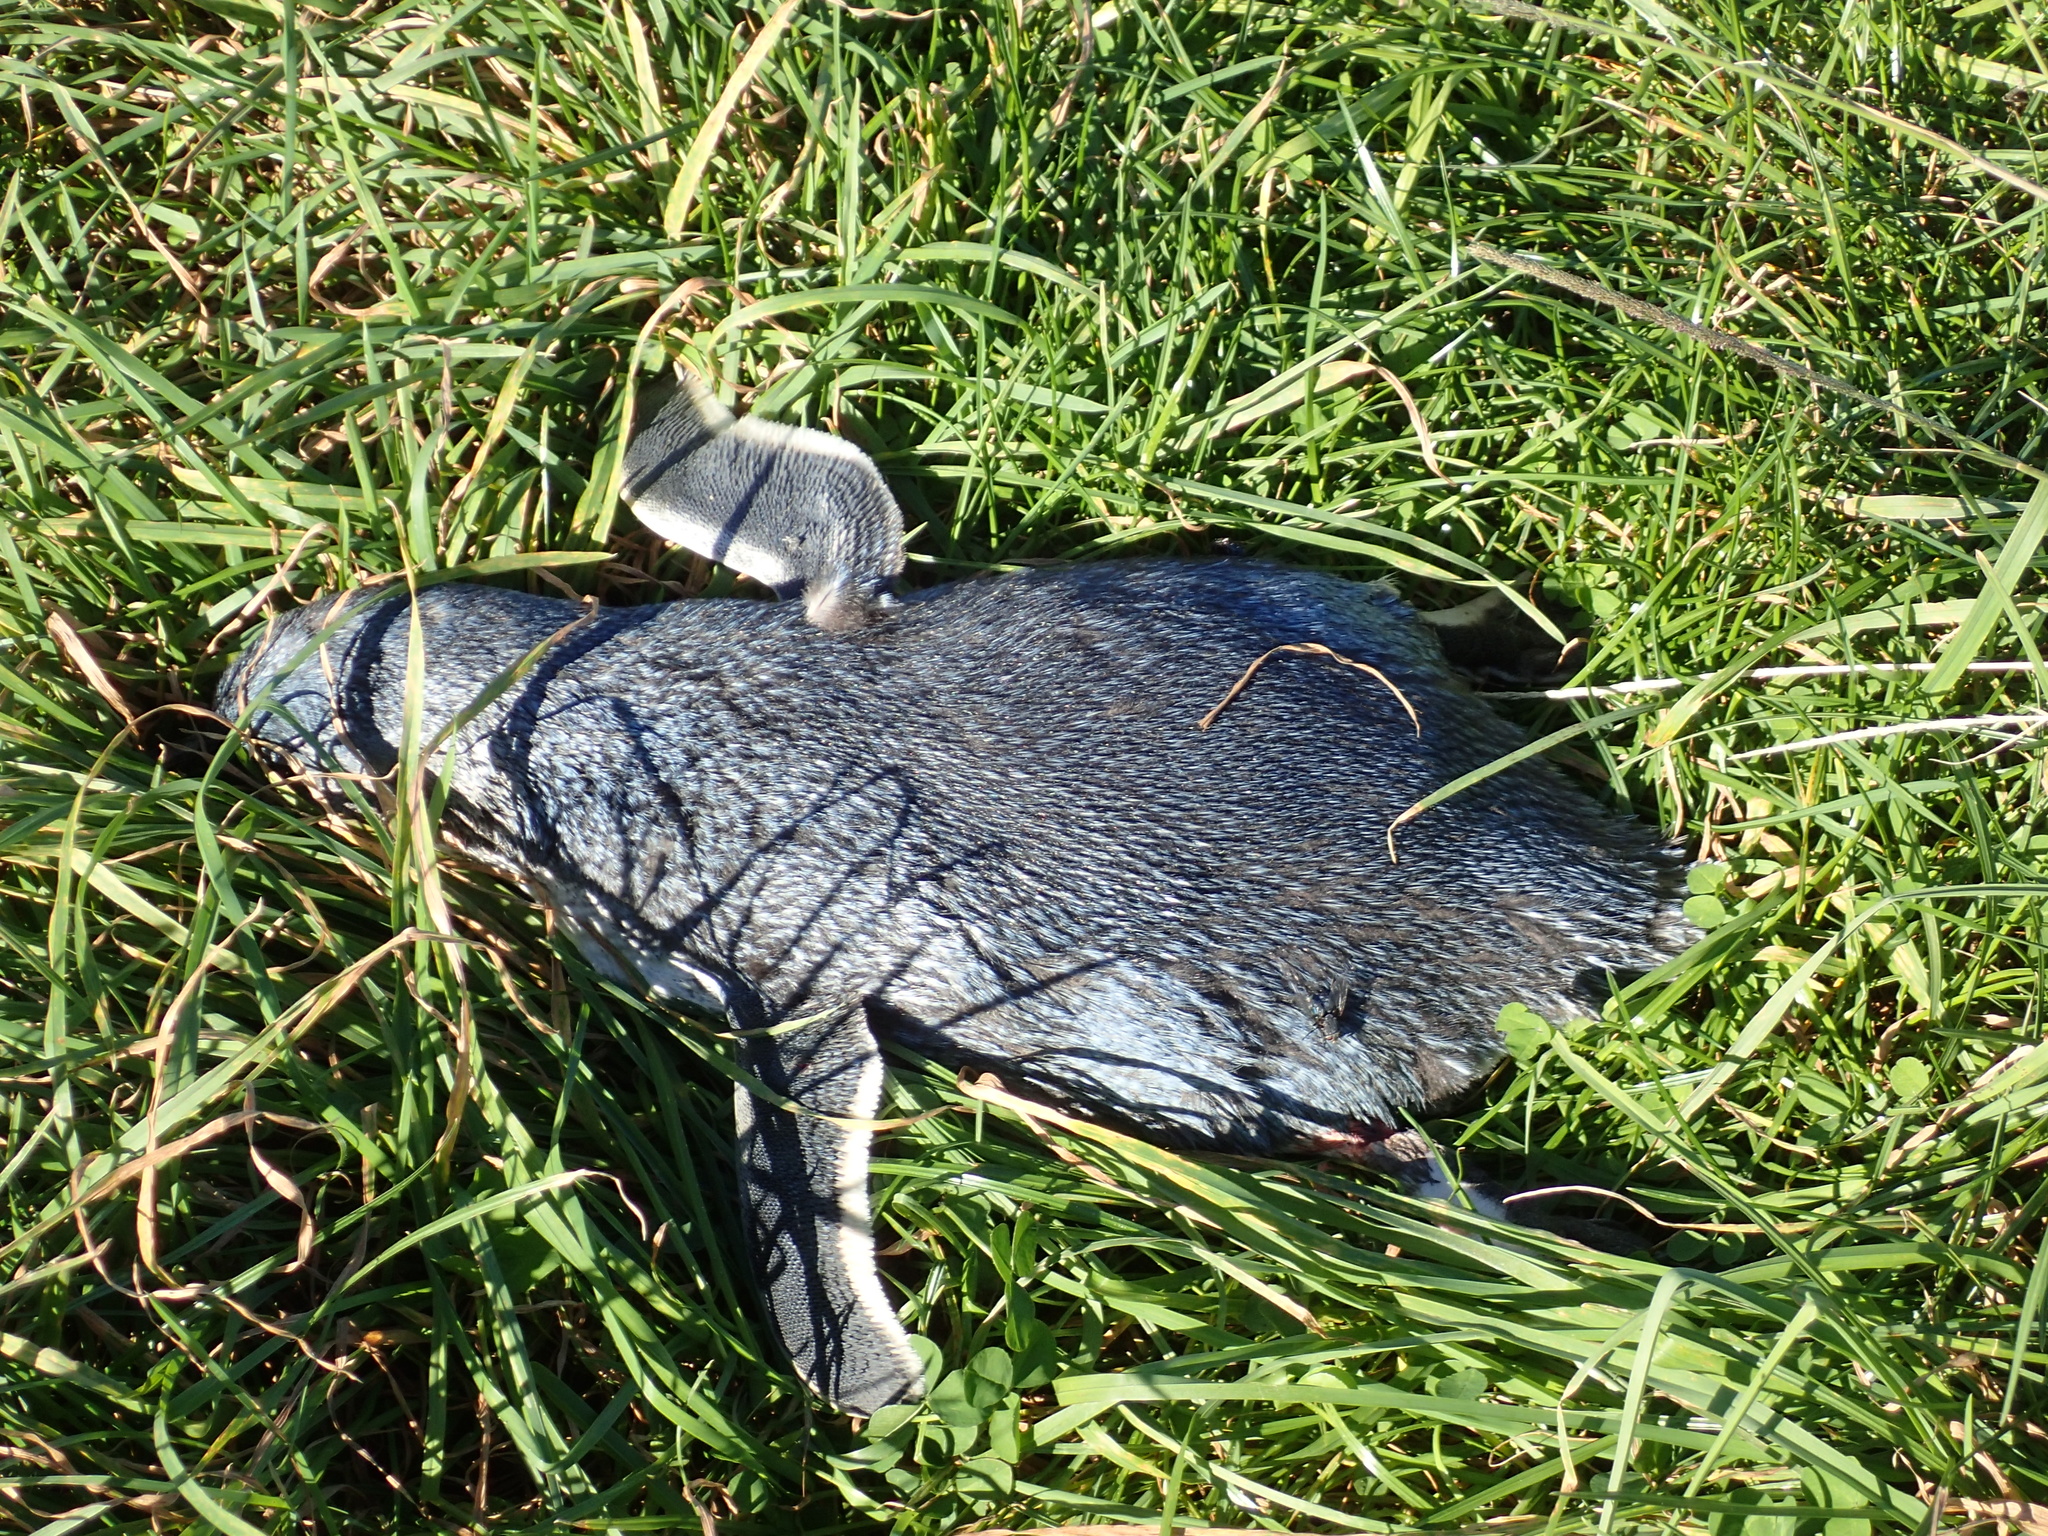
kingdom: Animalia
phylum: Chordata
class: Aves
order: Sphenisciformes
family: Spheniscidae
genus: Eudyptula
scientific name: Eudyptula minor
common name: Little penguin
